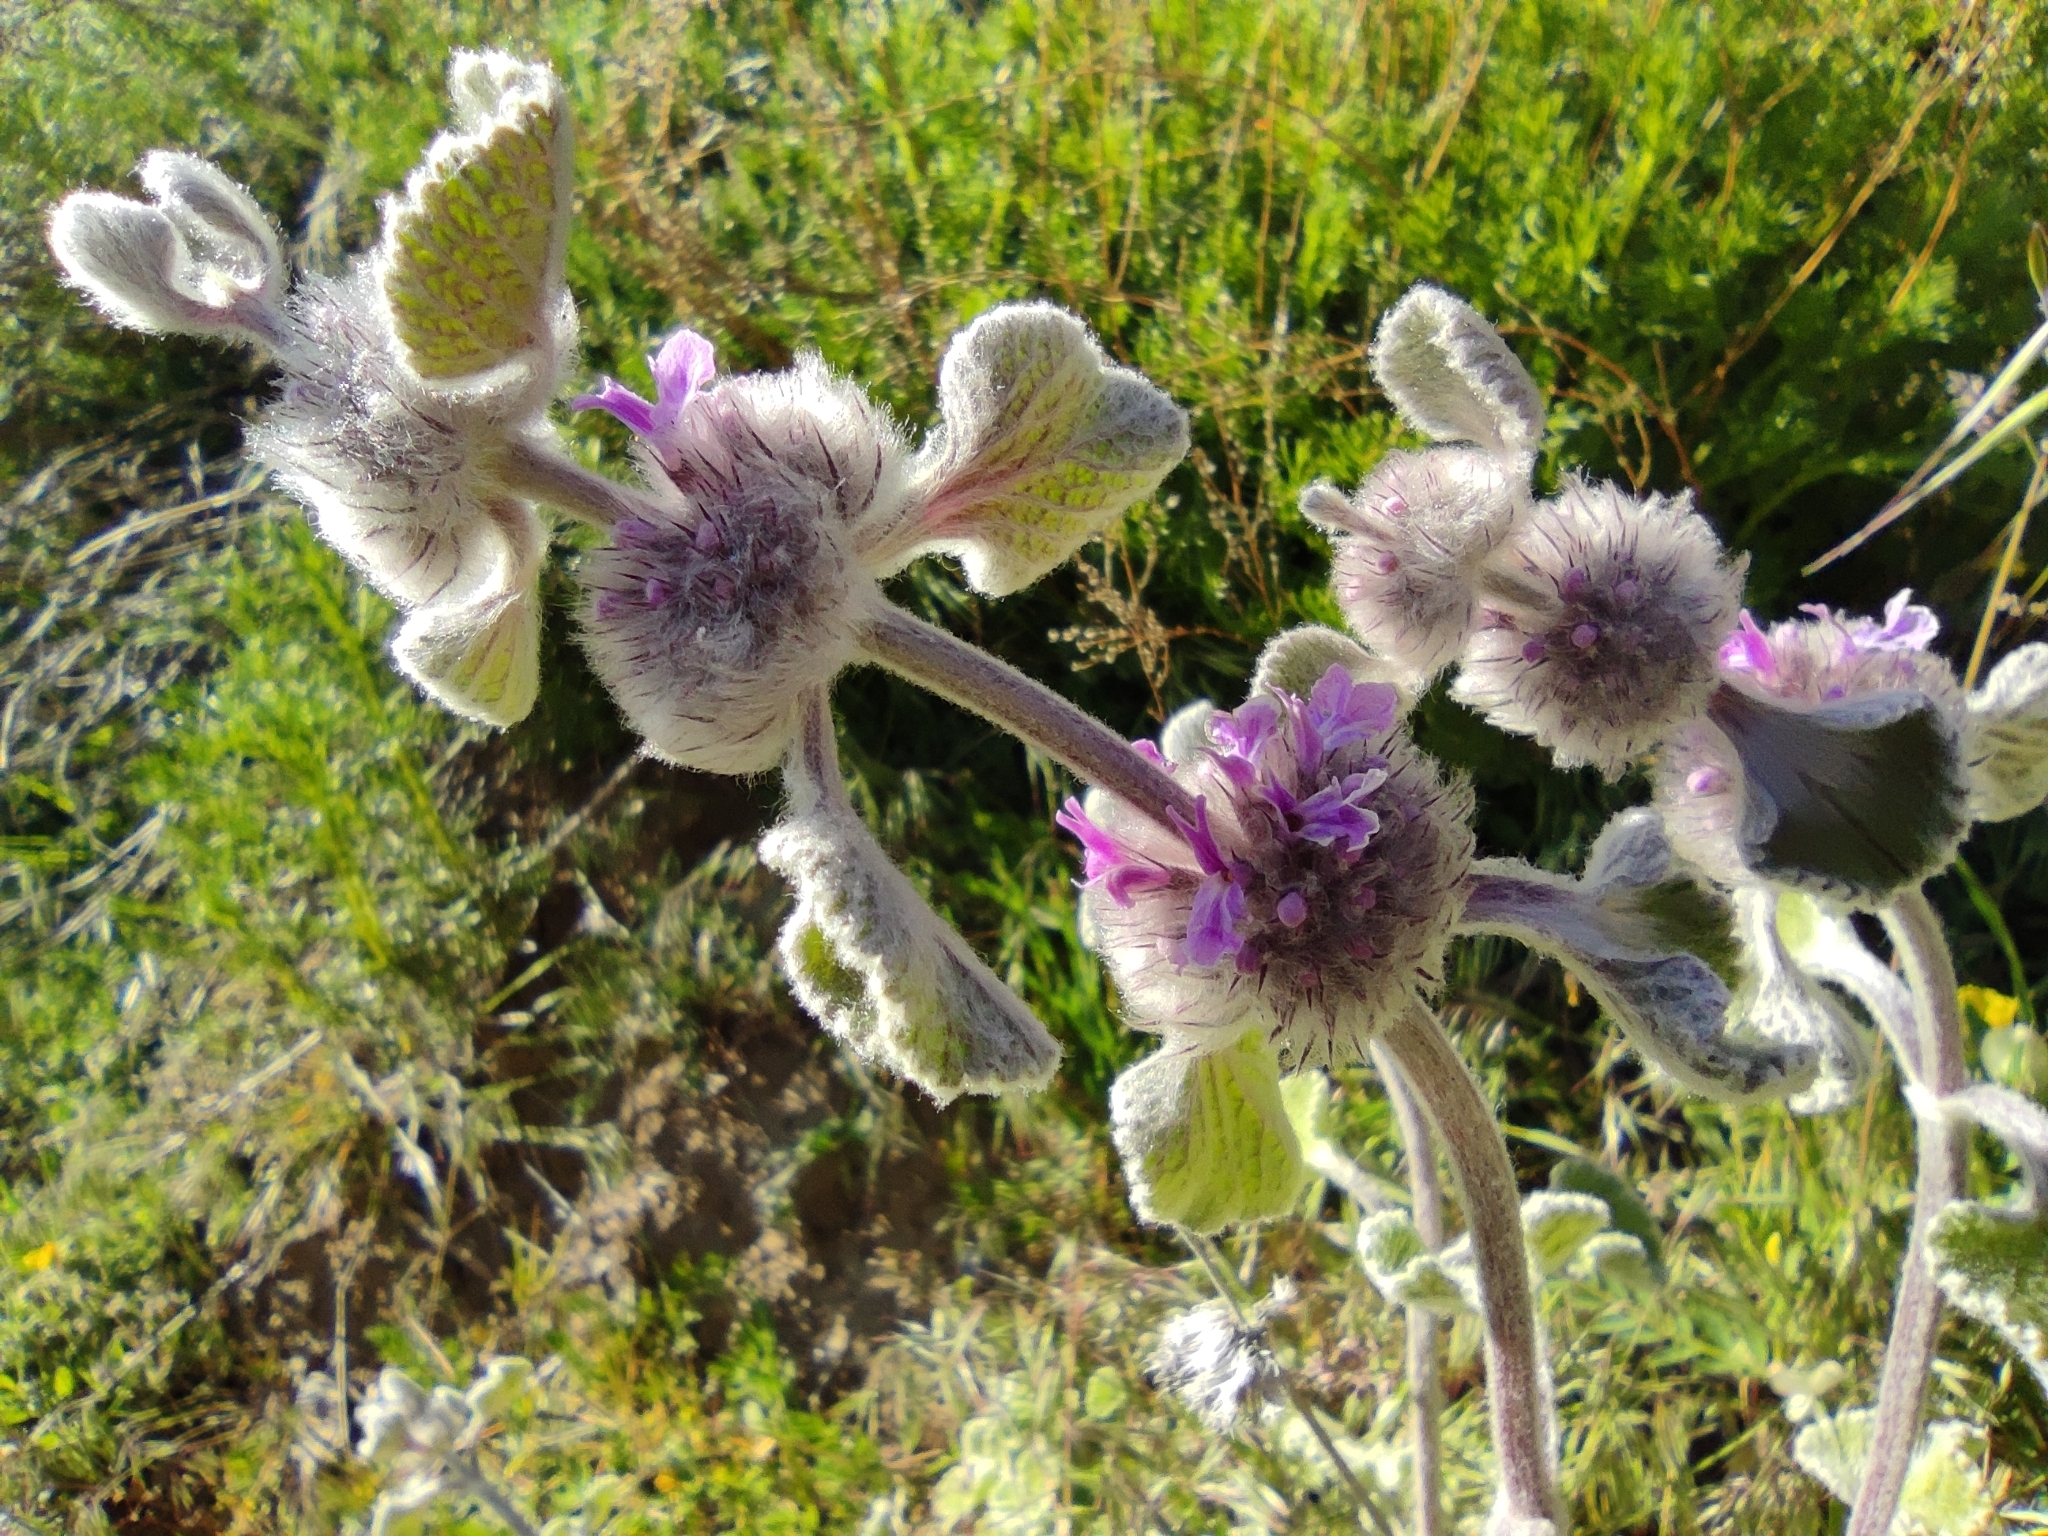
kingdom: Plantae
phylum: Tracheophyta
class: Magnoliopsida
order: Lamiales
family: Lamiaceae
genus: Marrubium
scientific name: Marrubium supinum
